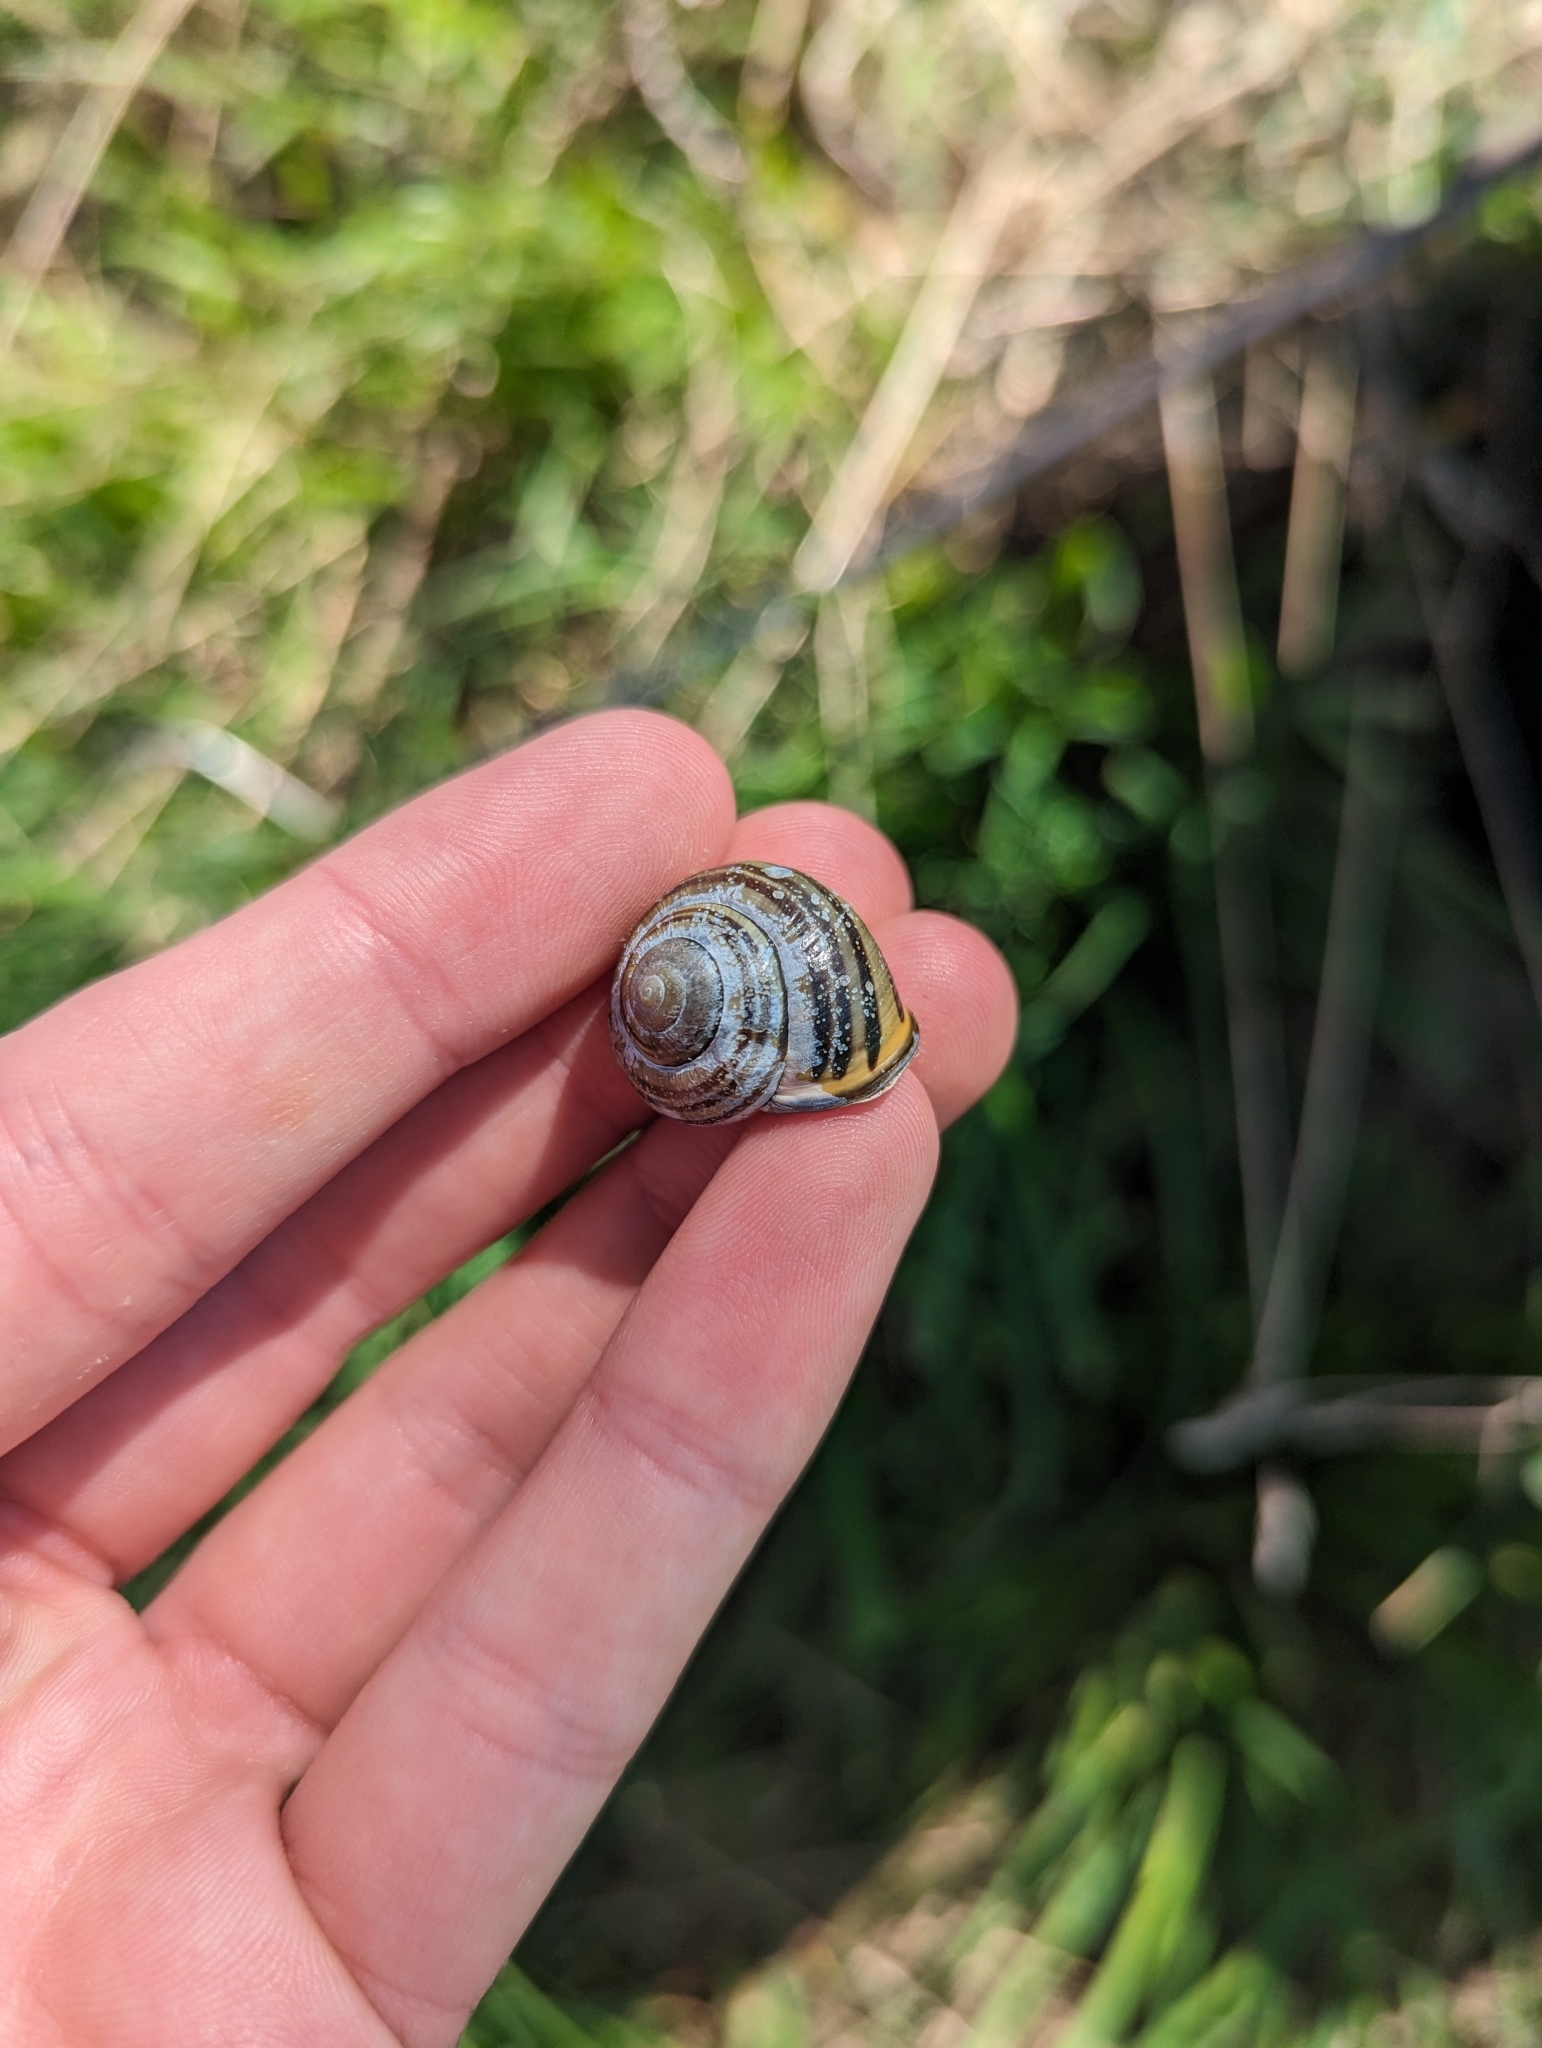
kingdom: Animalia
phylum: Mollusca
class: Gastropoda
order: Stylommatophora
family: Helicidae
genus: Cepaea
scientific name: Cepaea nemoralis
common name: Grovesnail
